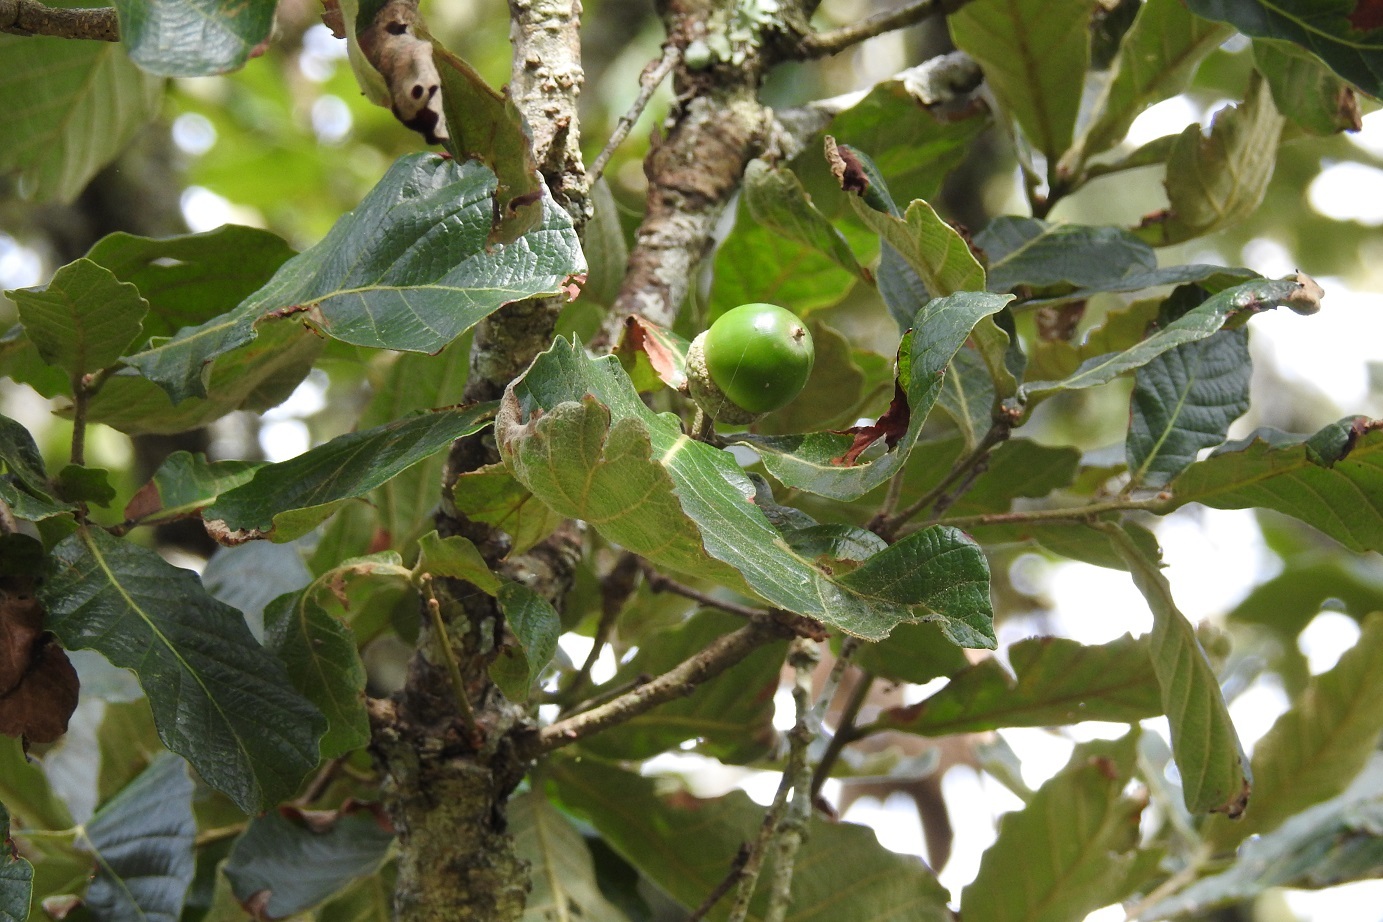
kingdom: Plantae
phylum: Tracheophyta
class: Magnoliopsida
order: Fagales
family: Fagaceae
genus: Quercus
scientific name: Quercus peduncularis
